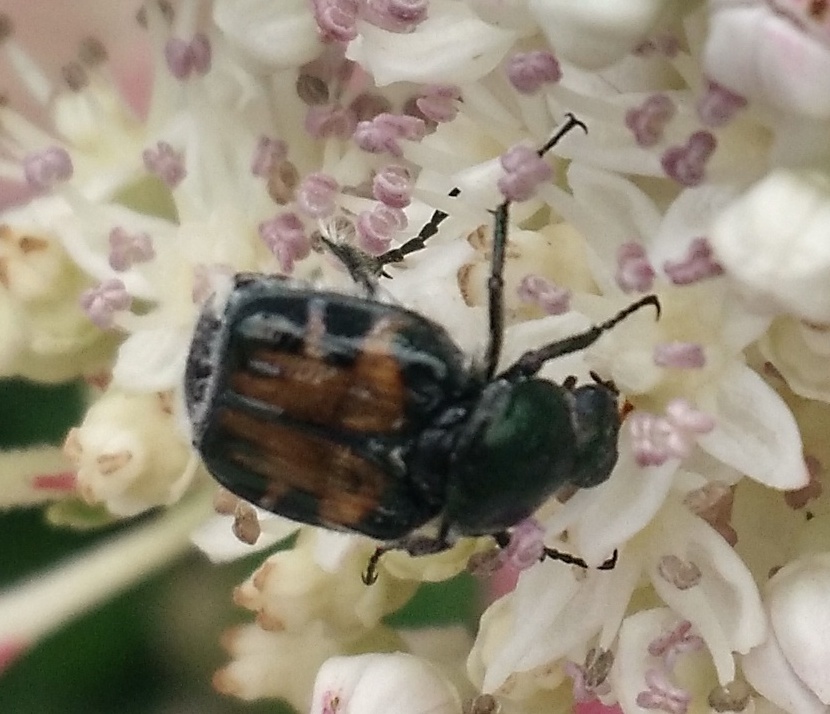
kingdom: Animalia
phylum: Arthropoda
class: Insecta
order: Coleoptera
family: Scarabaeidae
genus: Trichiotinus
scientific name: Trichiotinus viridans
